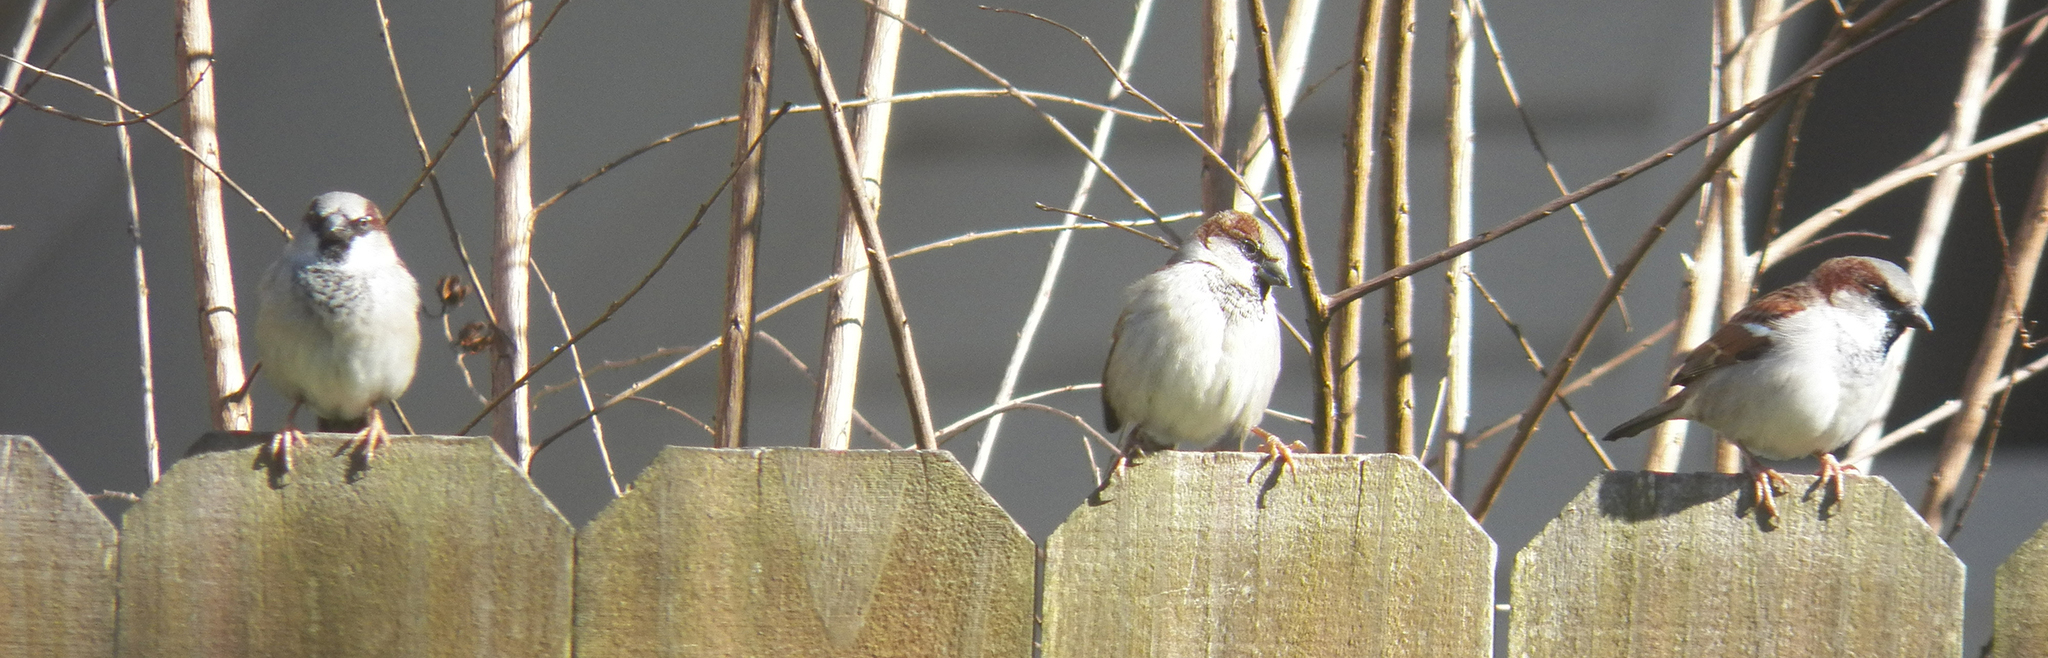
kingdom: Animalia
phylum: Chordata
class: Aves
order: Passeriformes
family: Passeridae
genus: Passer
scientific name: Passer domesticus
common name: House sparrow
